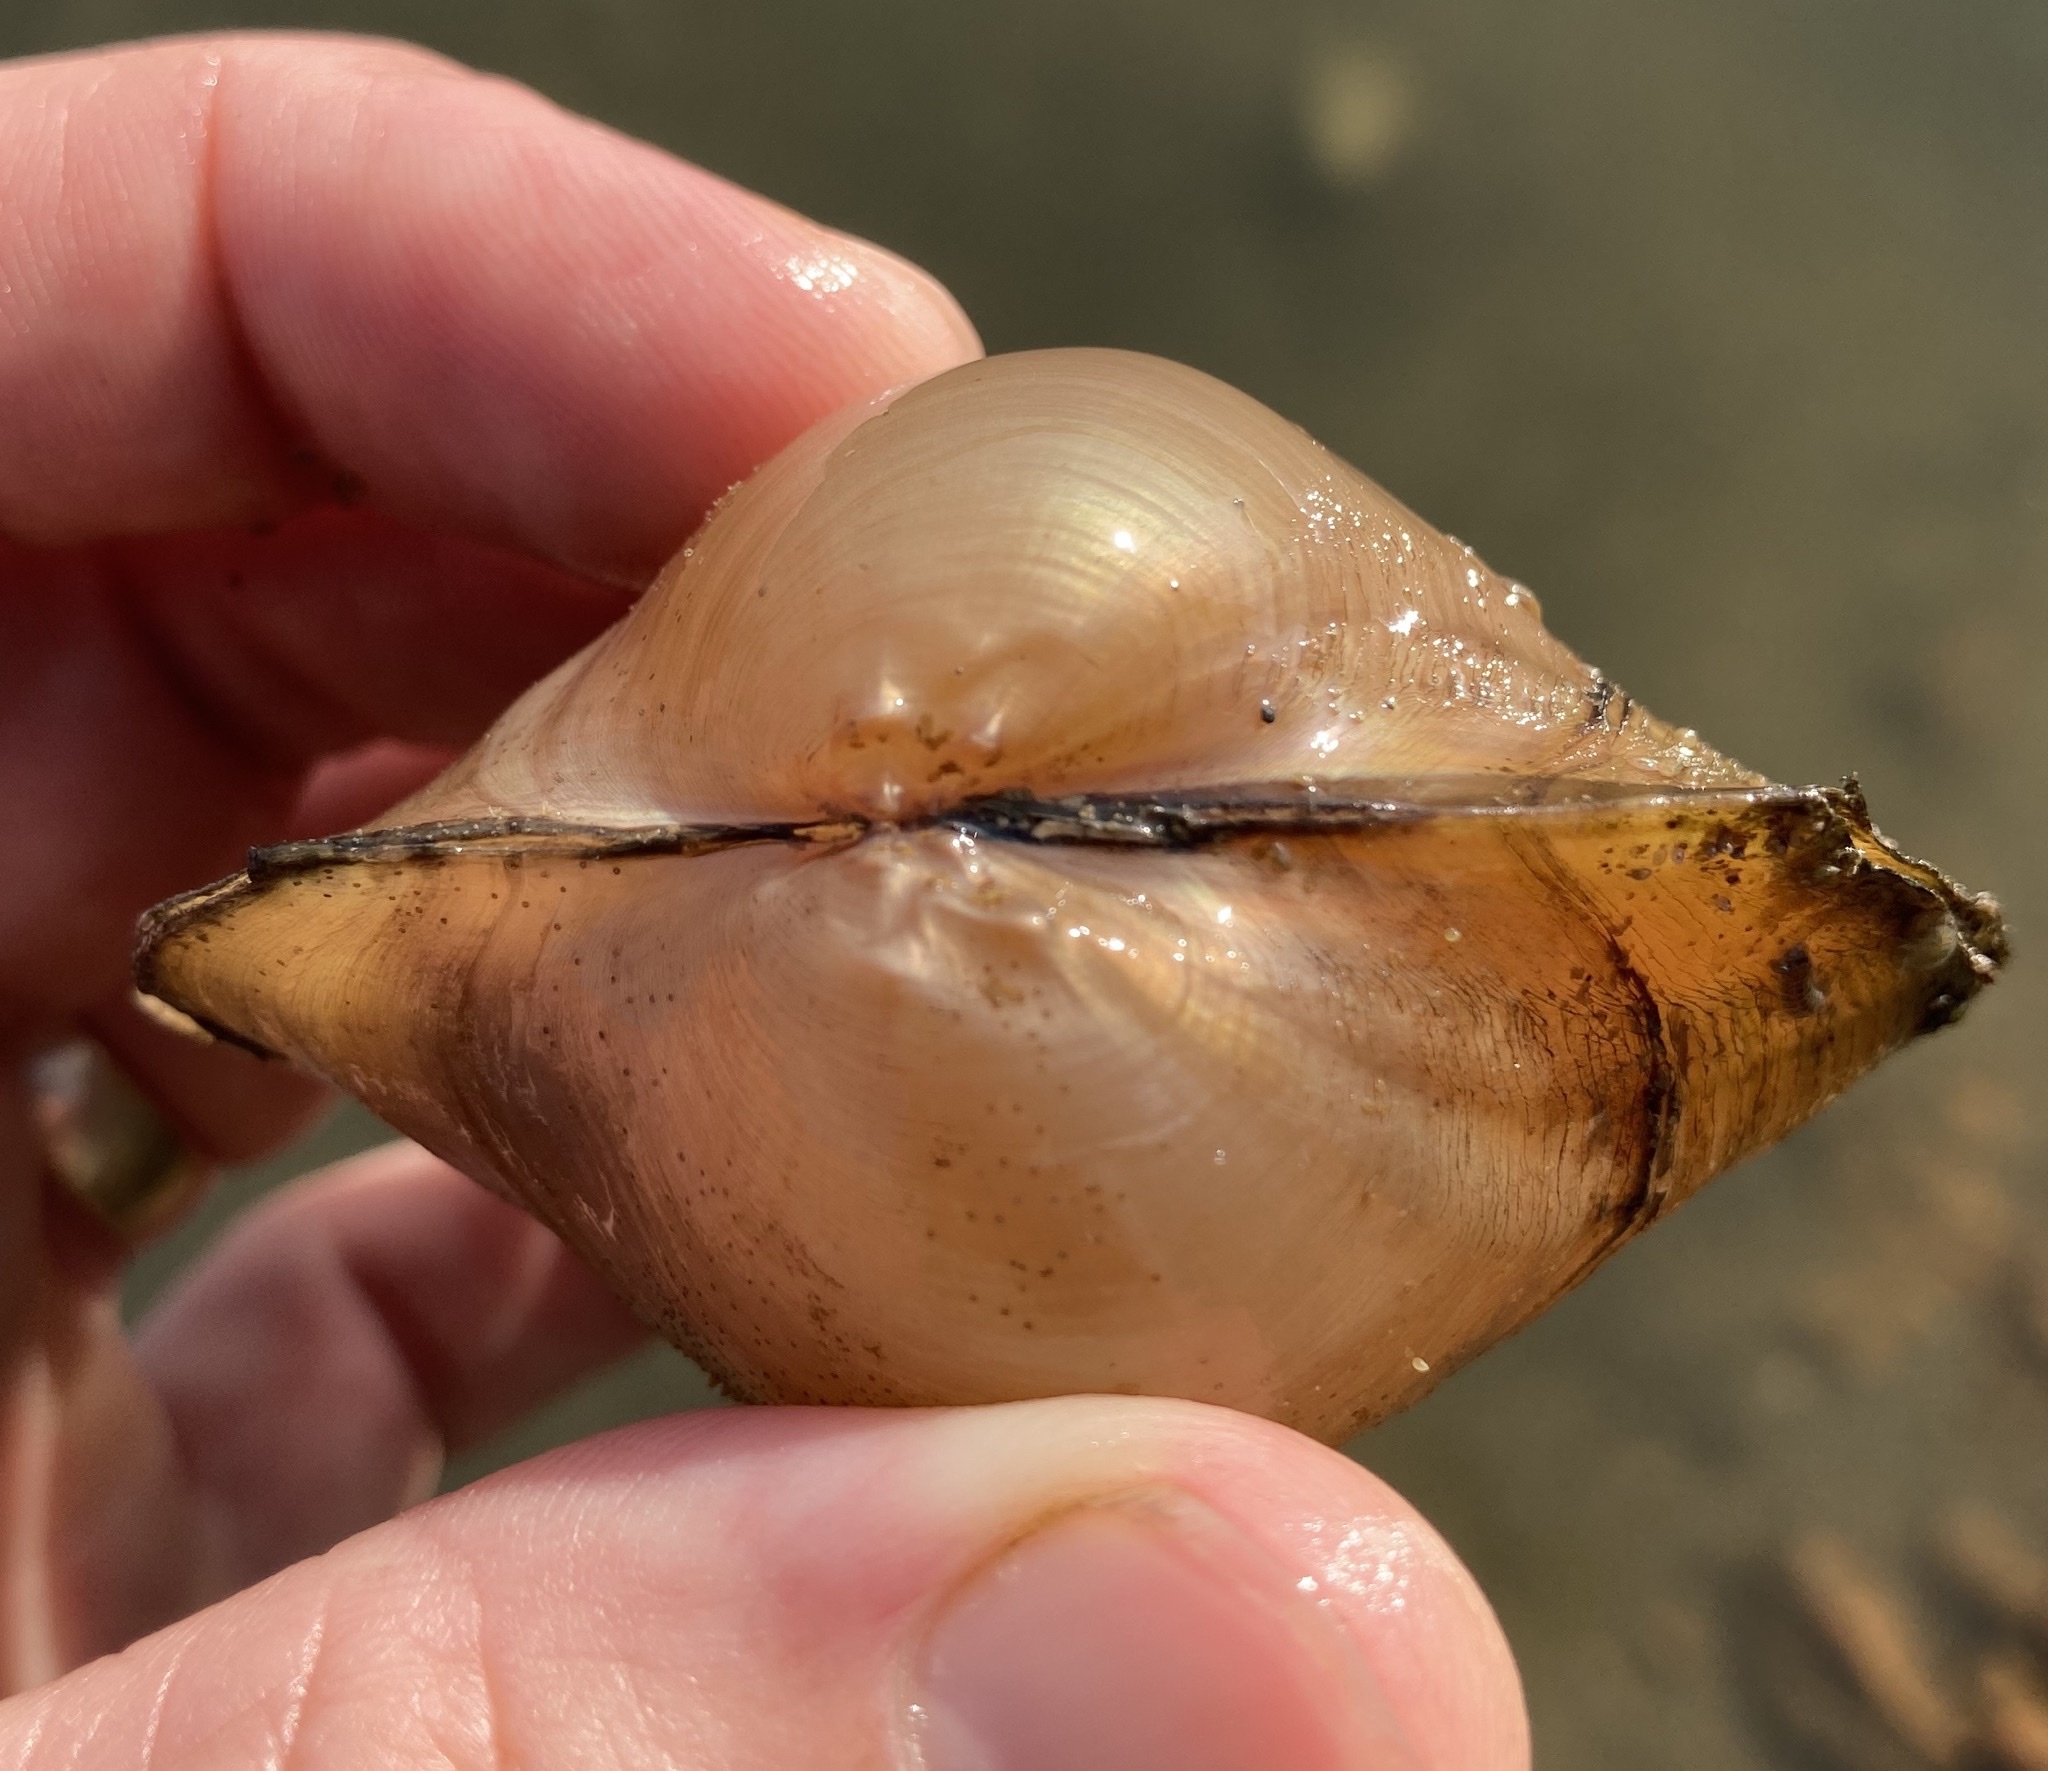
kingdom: Animalia
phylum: Mollusca
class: Bivalvia
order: Unionida
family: Unionidae
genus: Pyganodon
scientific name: Pyganodon grandis
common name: Giant floater
